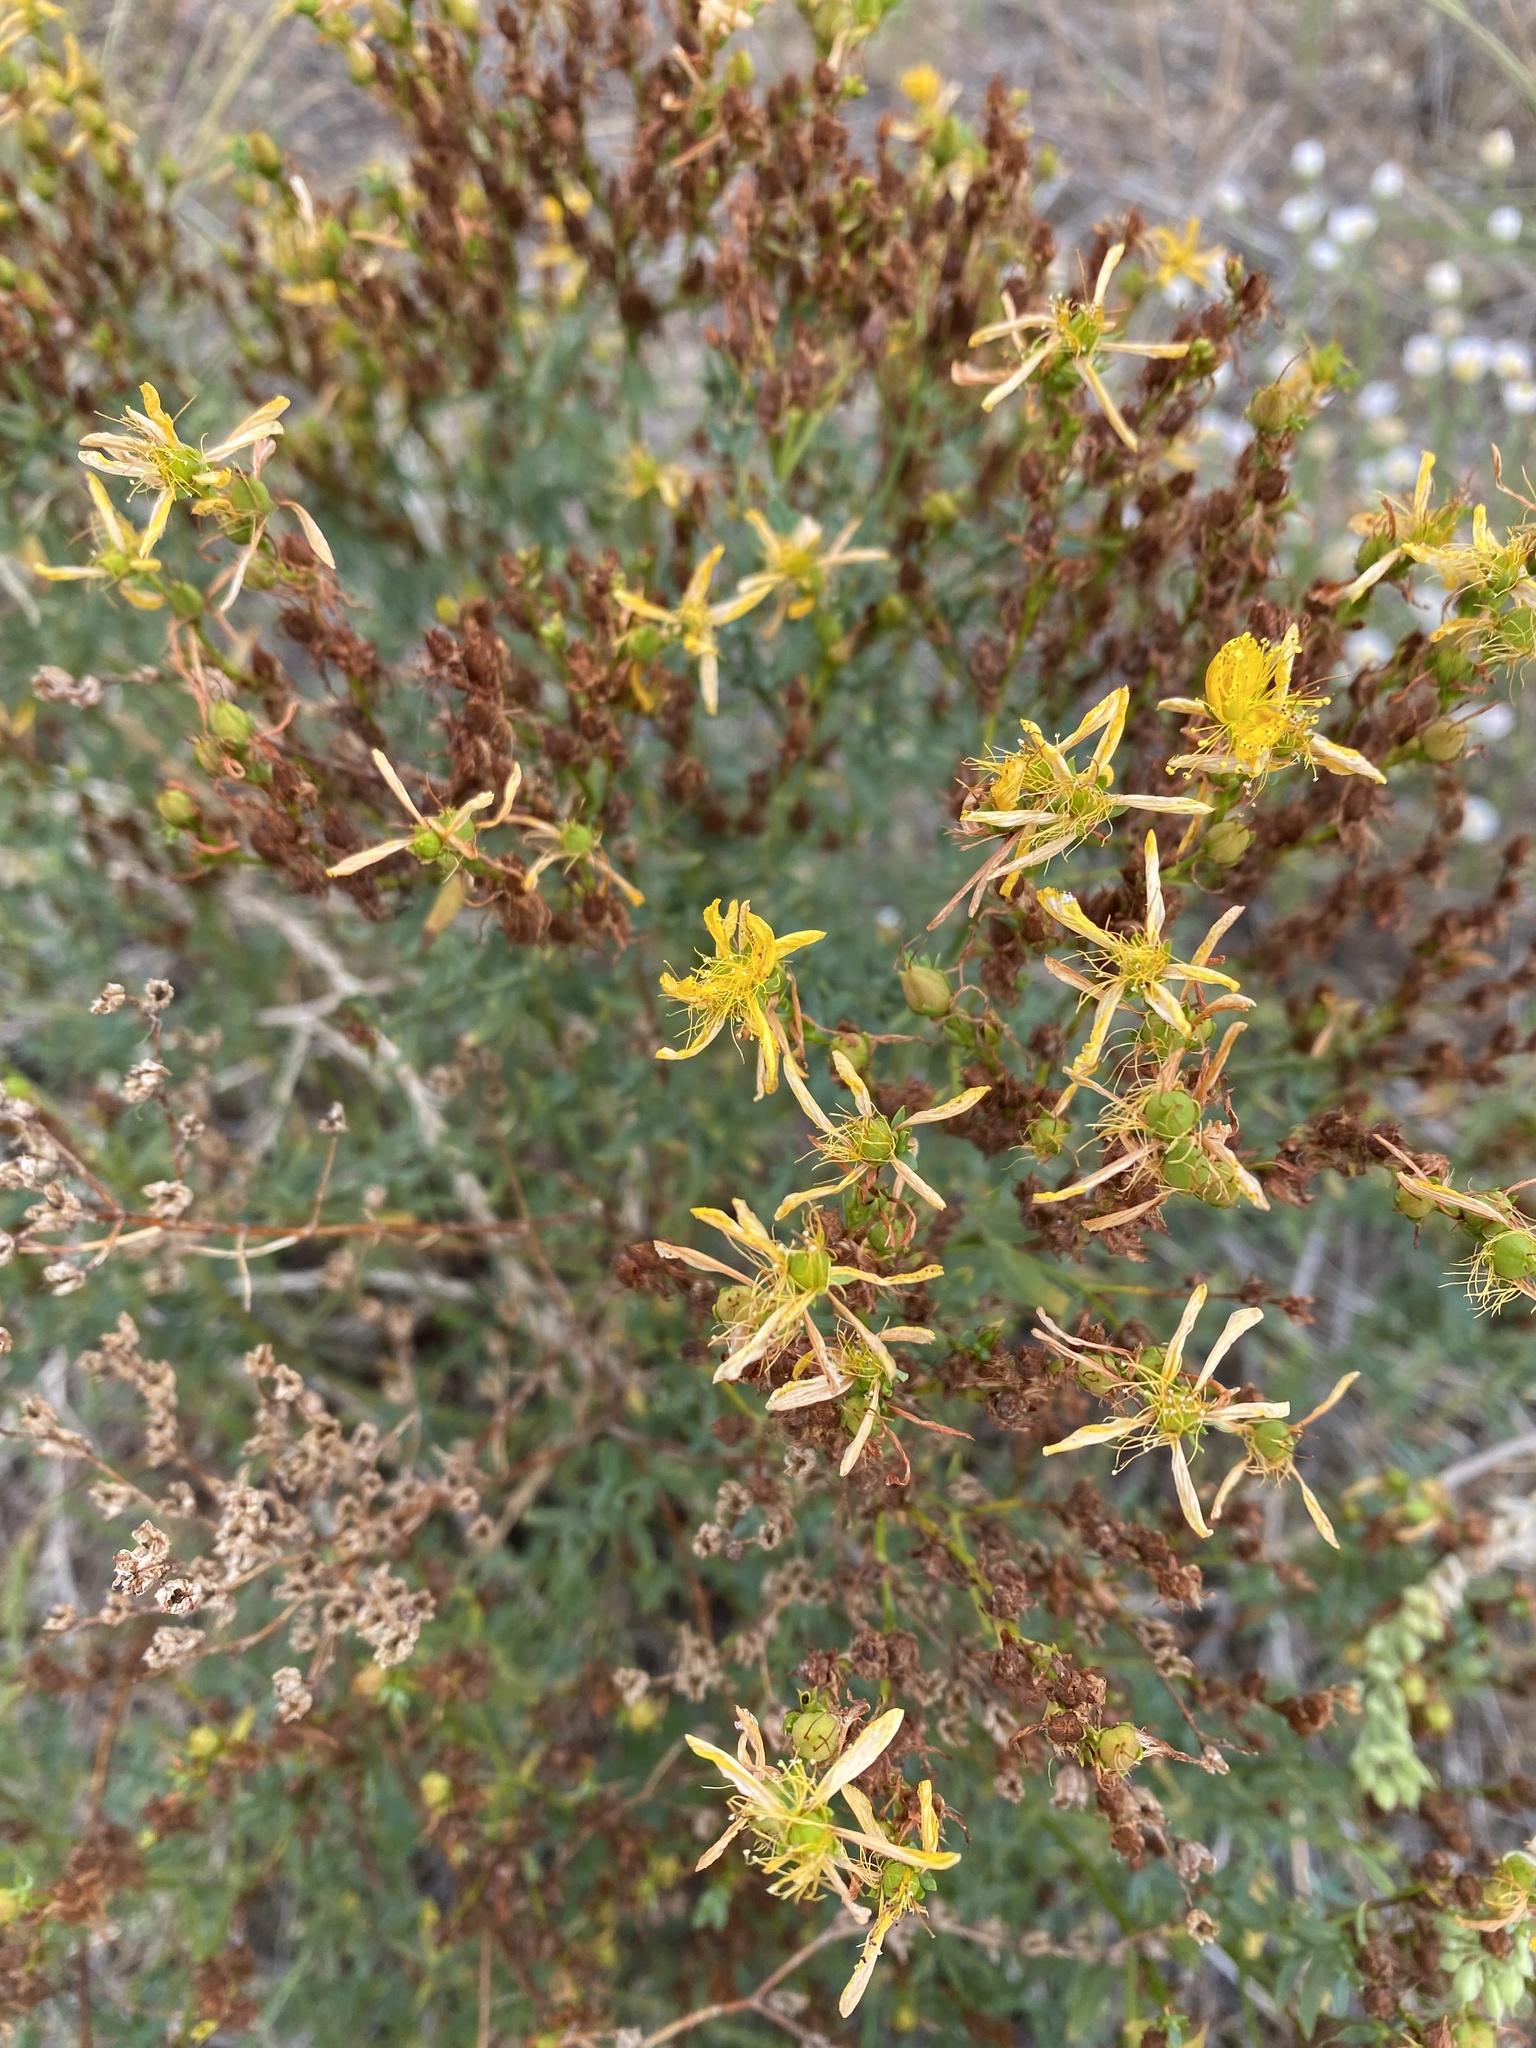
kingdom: Plantae
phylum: Tracheophyta
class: Magnoliopsida
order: Malpighiales
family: Hypericaceae
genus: Hypericum
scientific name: Hypericum perforatum
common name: Common st. johnswort
